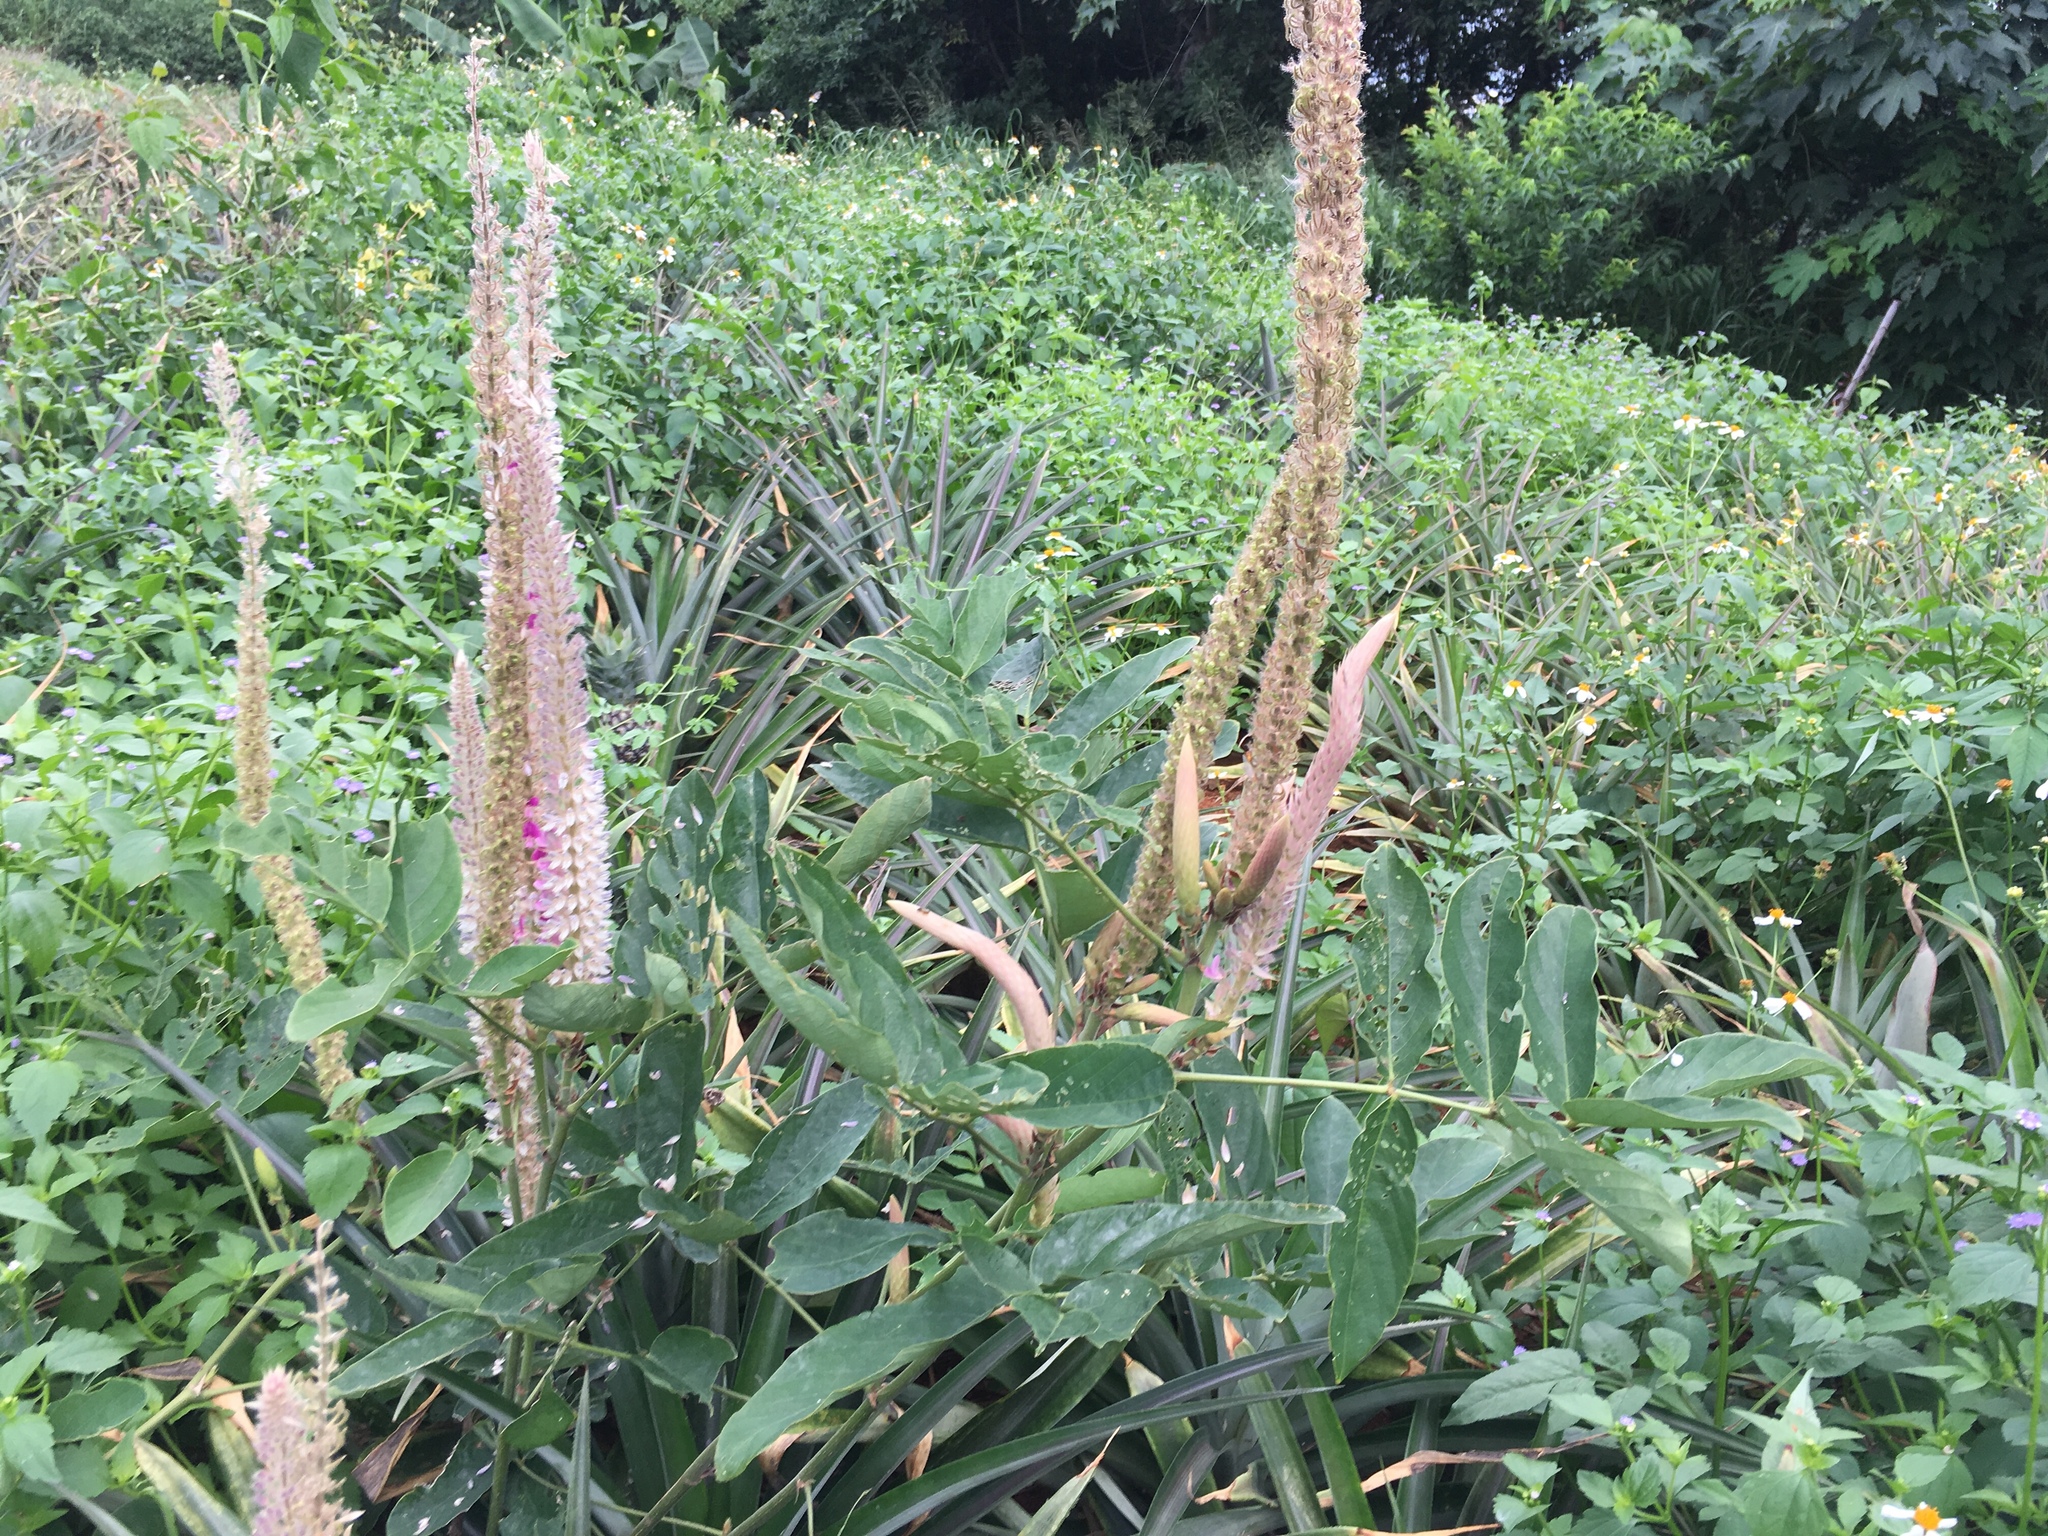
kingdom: Plantae
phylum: Tracheophyta
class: Magnoliopsida
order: Fabales
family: Fabaceae
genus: Uraria
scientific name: Uraria crinita
